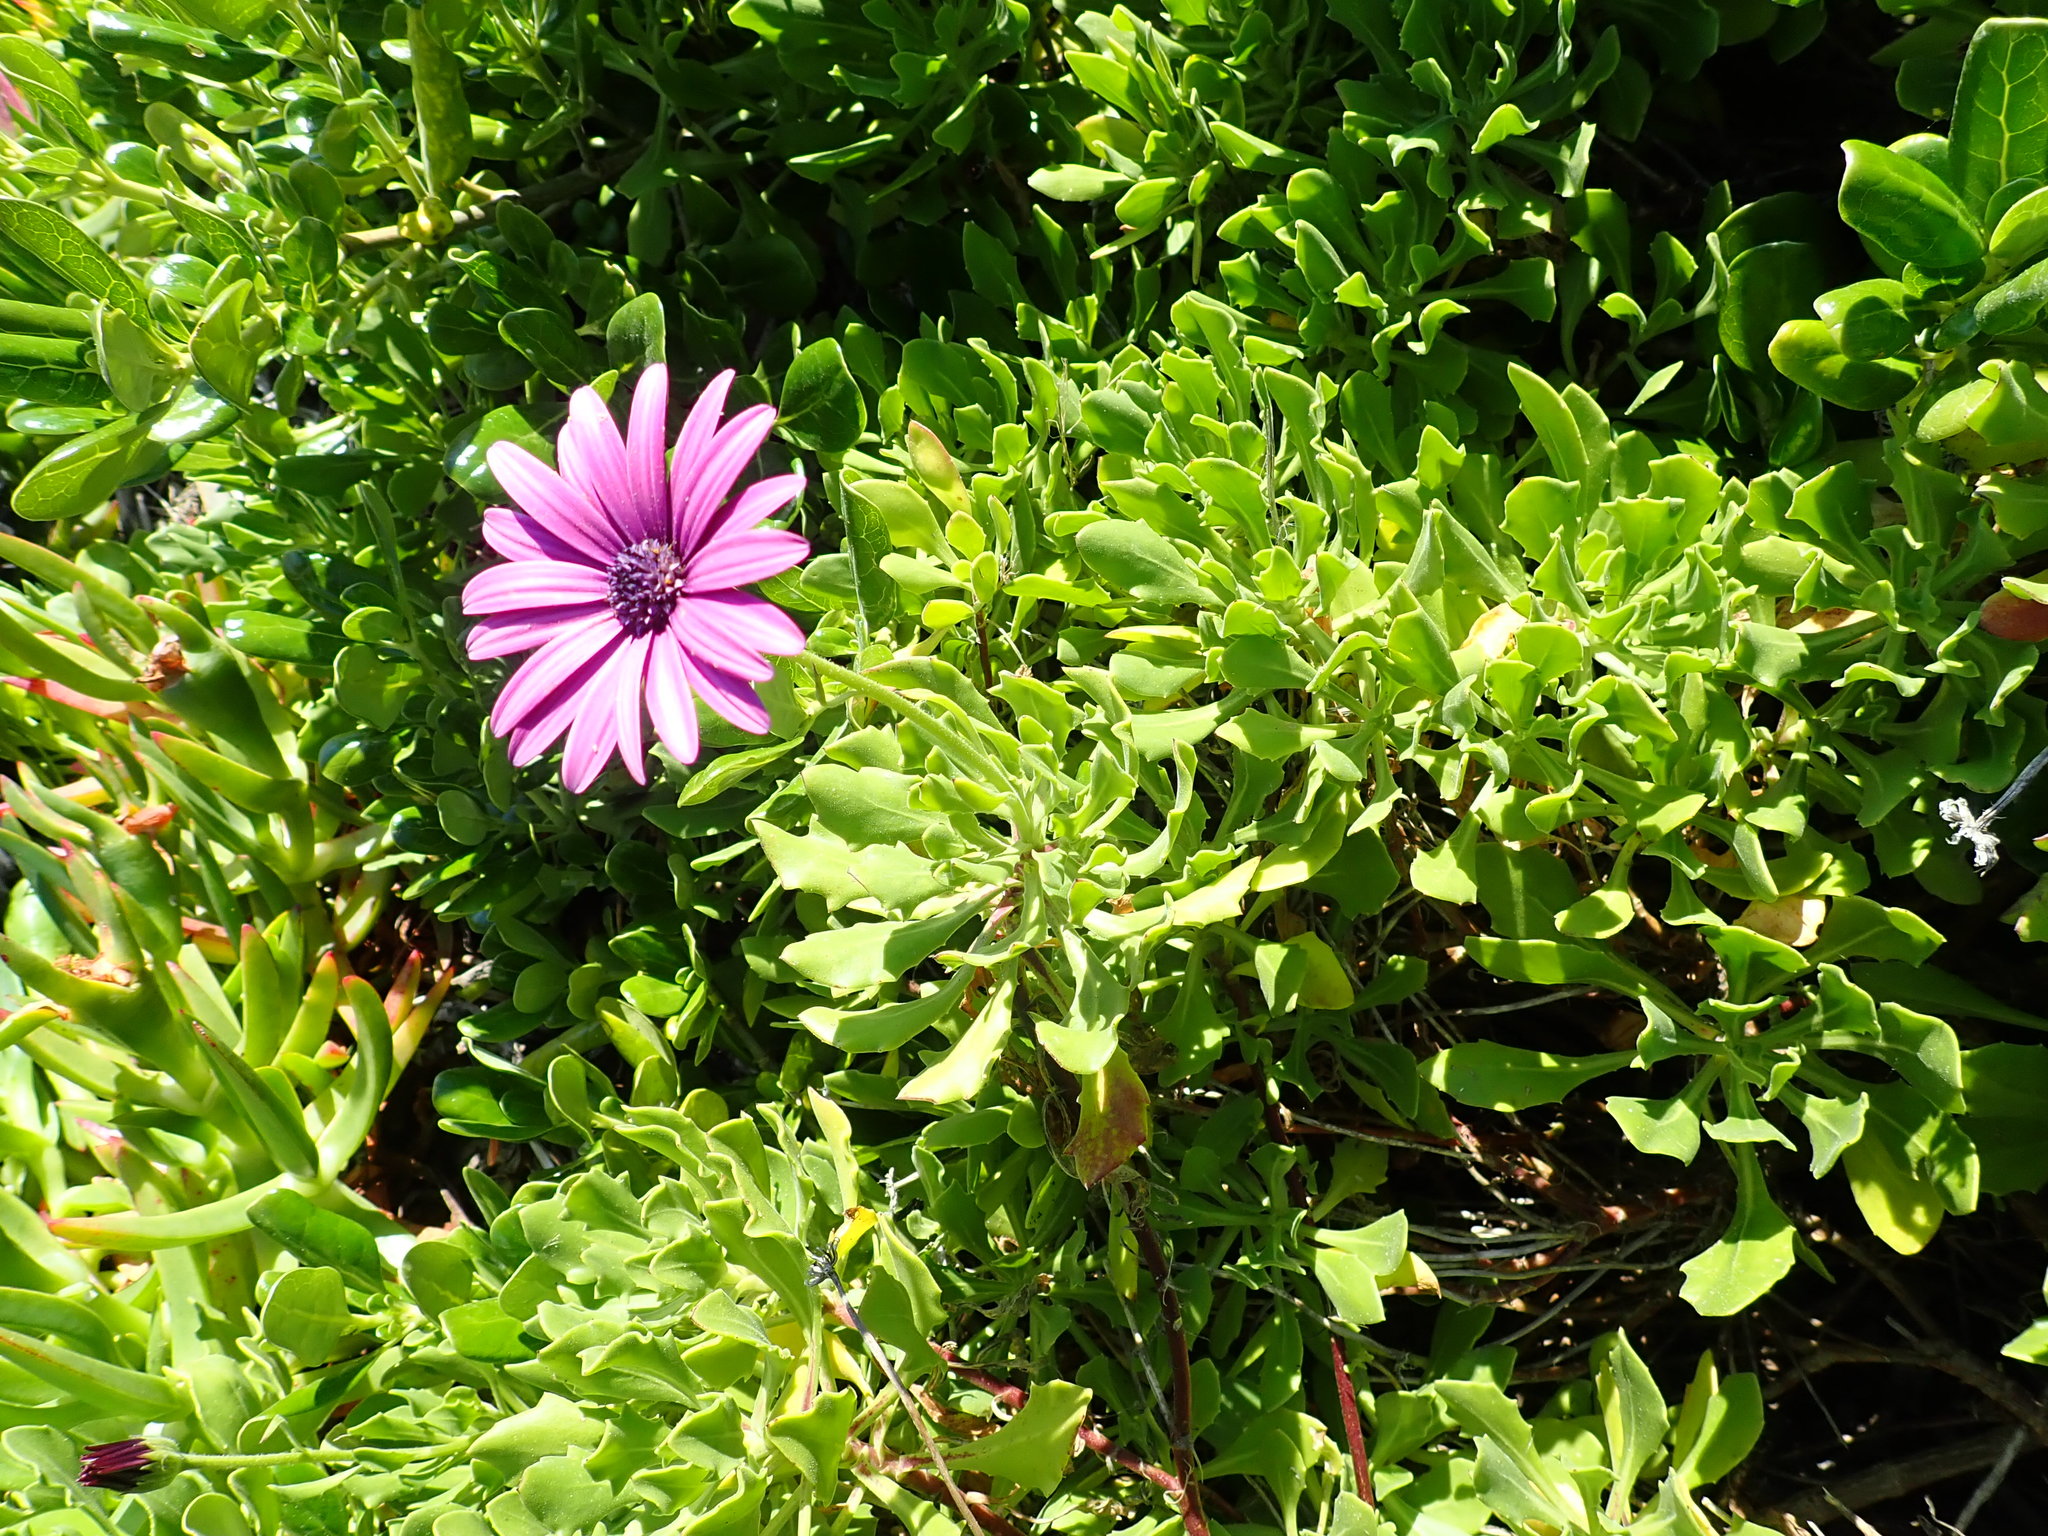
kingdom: Plantae
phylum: Tracheophyta
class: Magnoliopsida
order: Asterales
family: Asteraceae
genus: Dimorphotheca
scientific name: Dimorphotheca fruticosa
